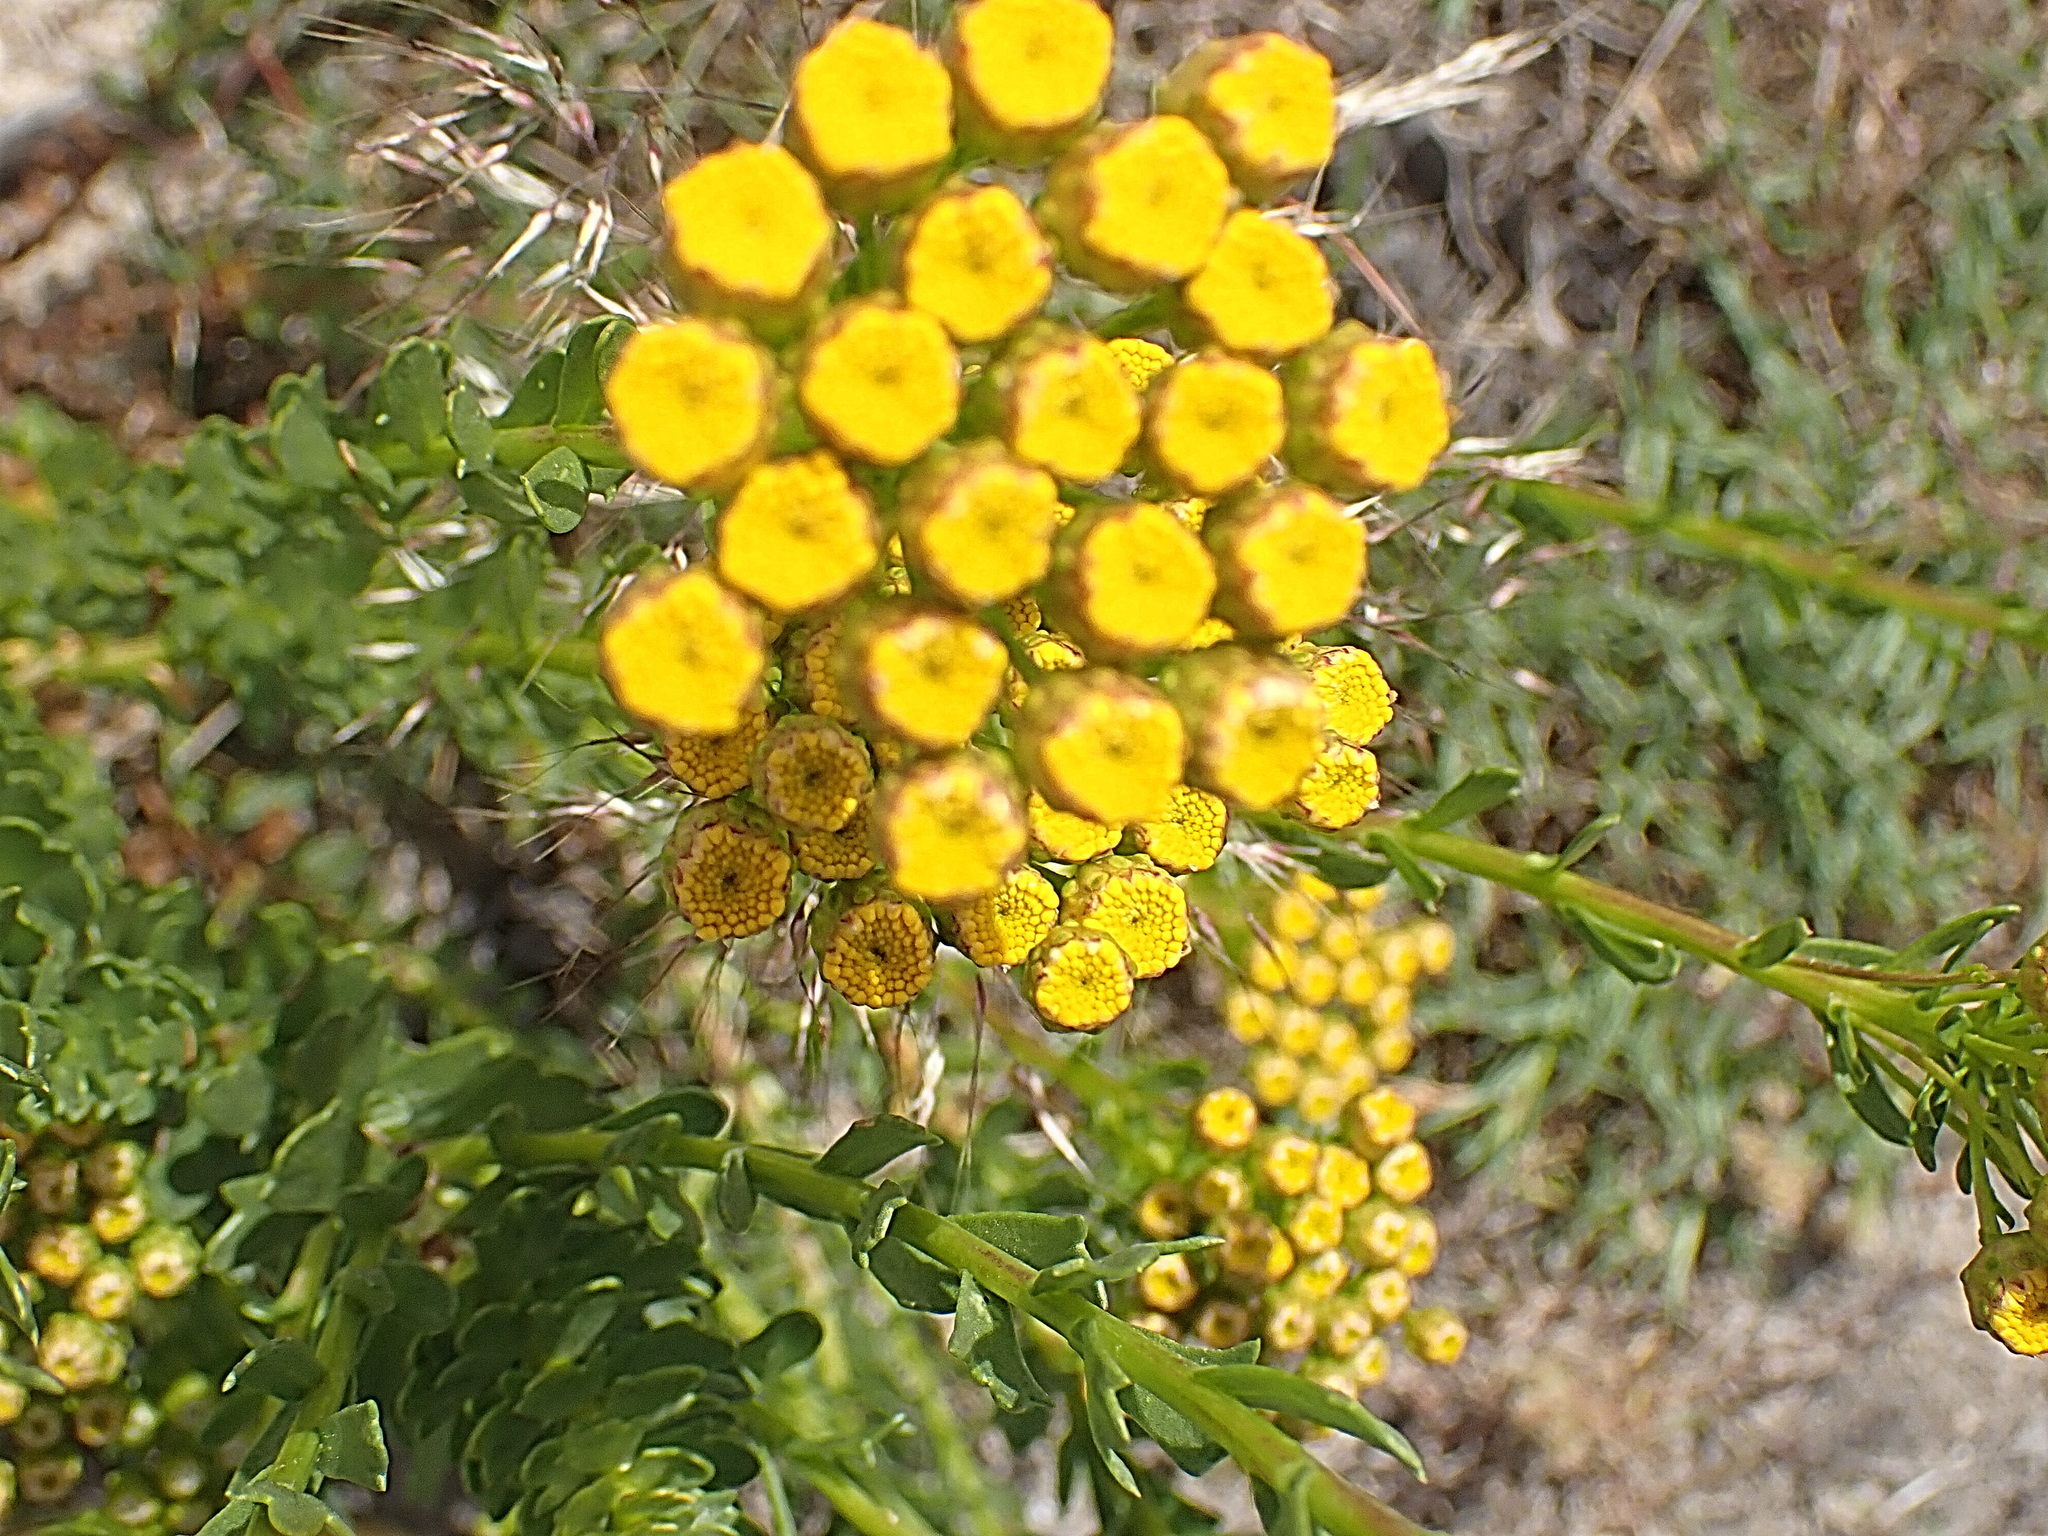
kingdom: Plantae
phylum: Tracheophyta
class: Magnoliopsida
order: Asterales
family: Asteraceae
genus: Athanasia
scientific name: Athanasia dentata
